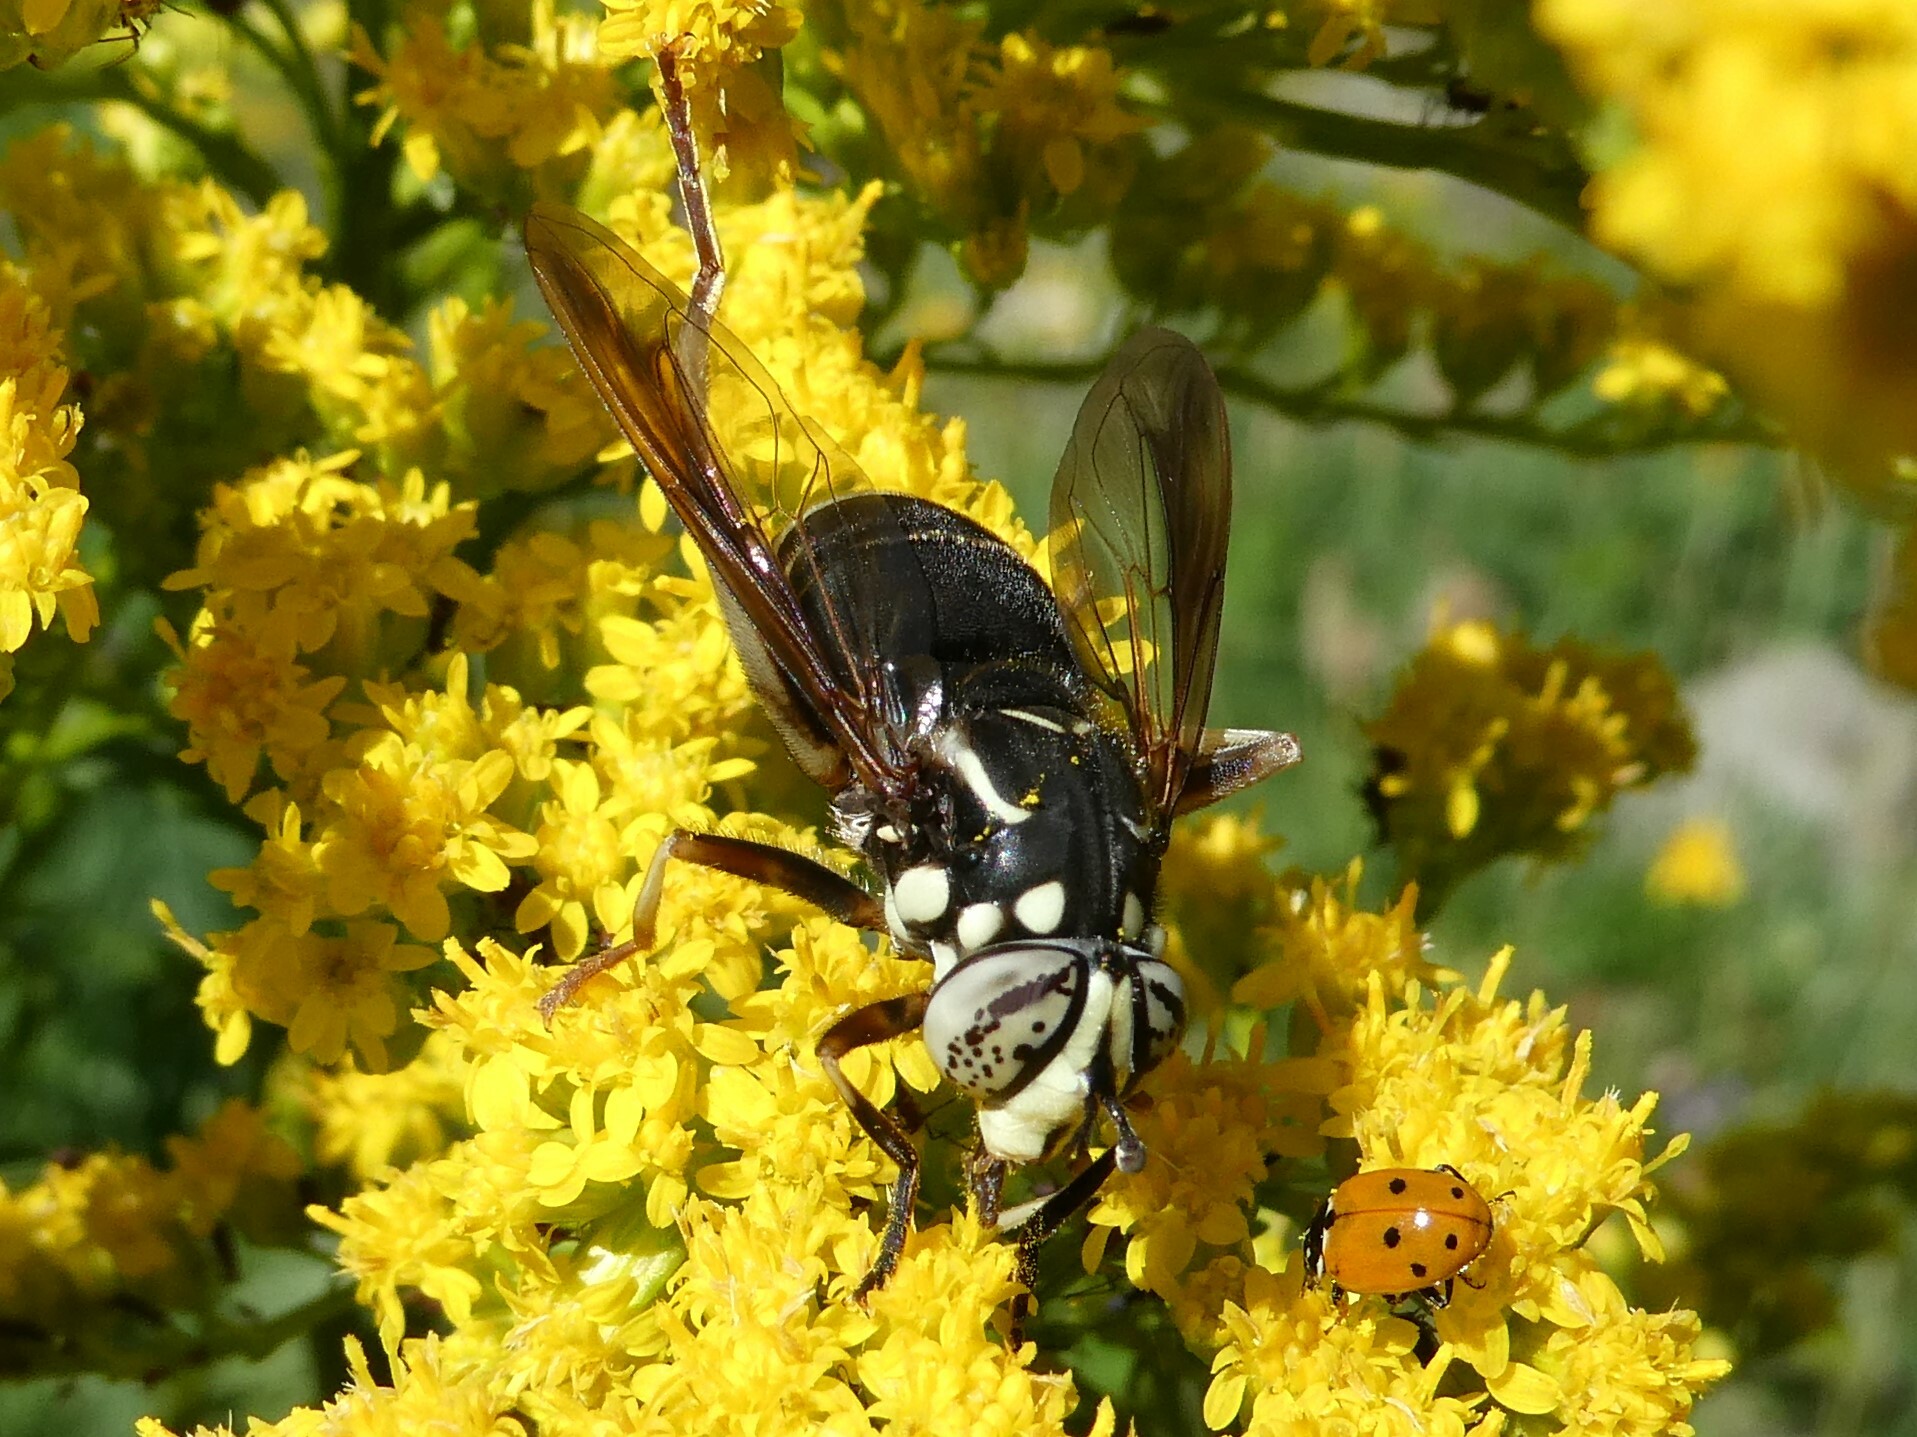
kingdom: Animalia
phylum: Arthropoda
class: Insecta
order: Diptera
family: Syrphidae
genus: Spilomyia
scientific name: Spilomyia fusca
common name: Bald-faced hornet fly
